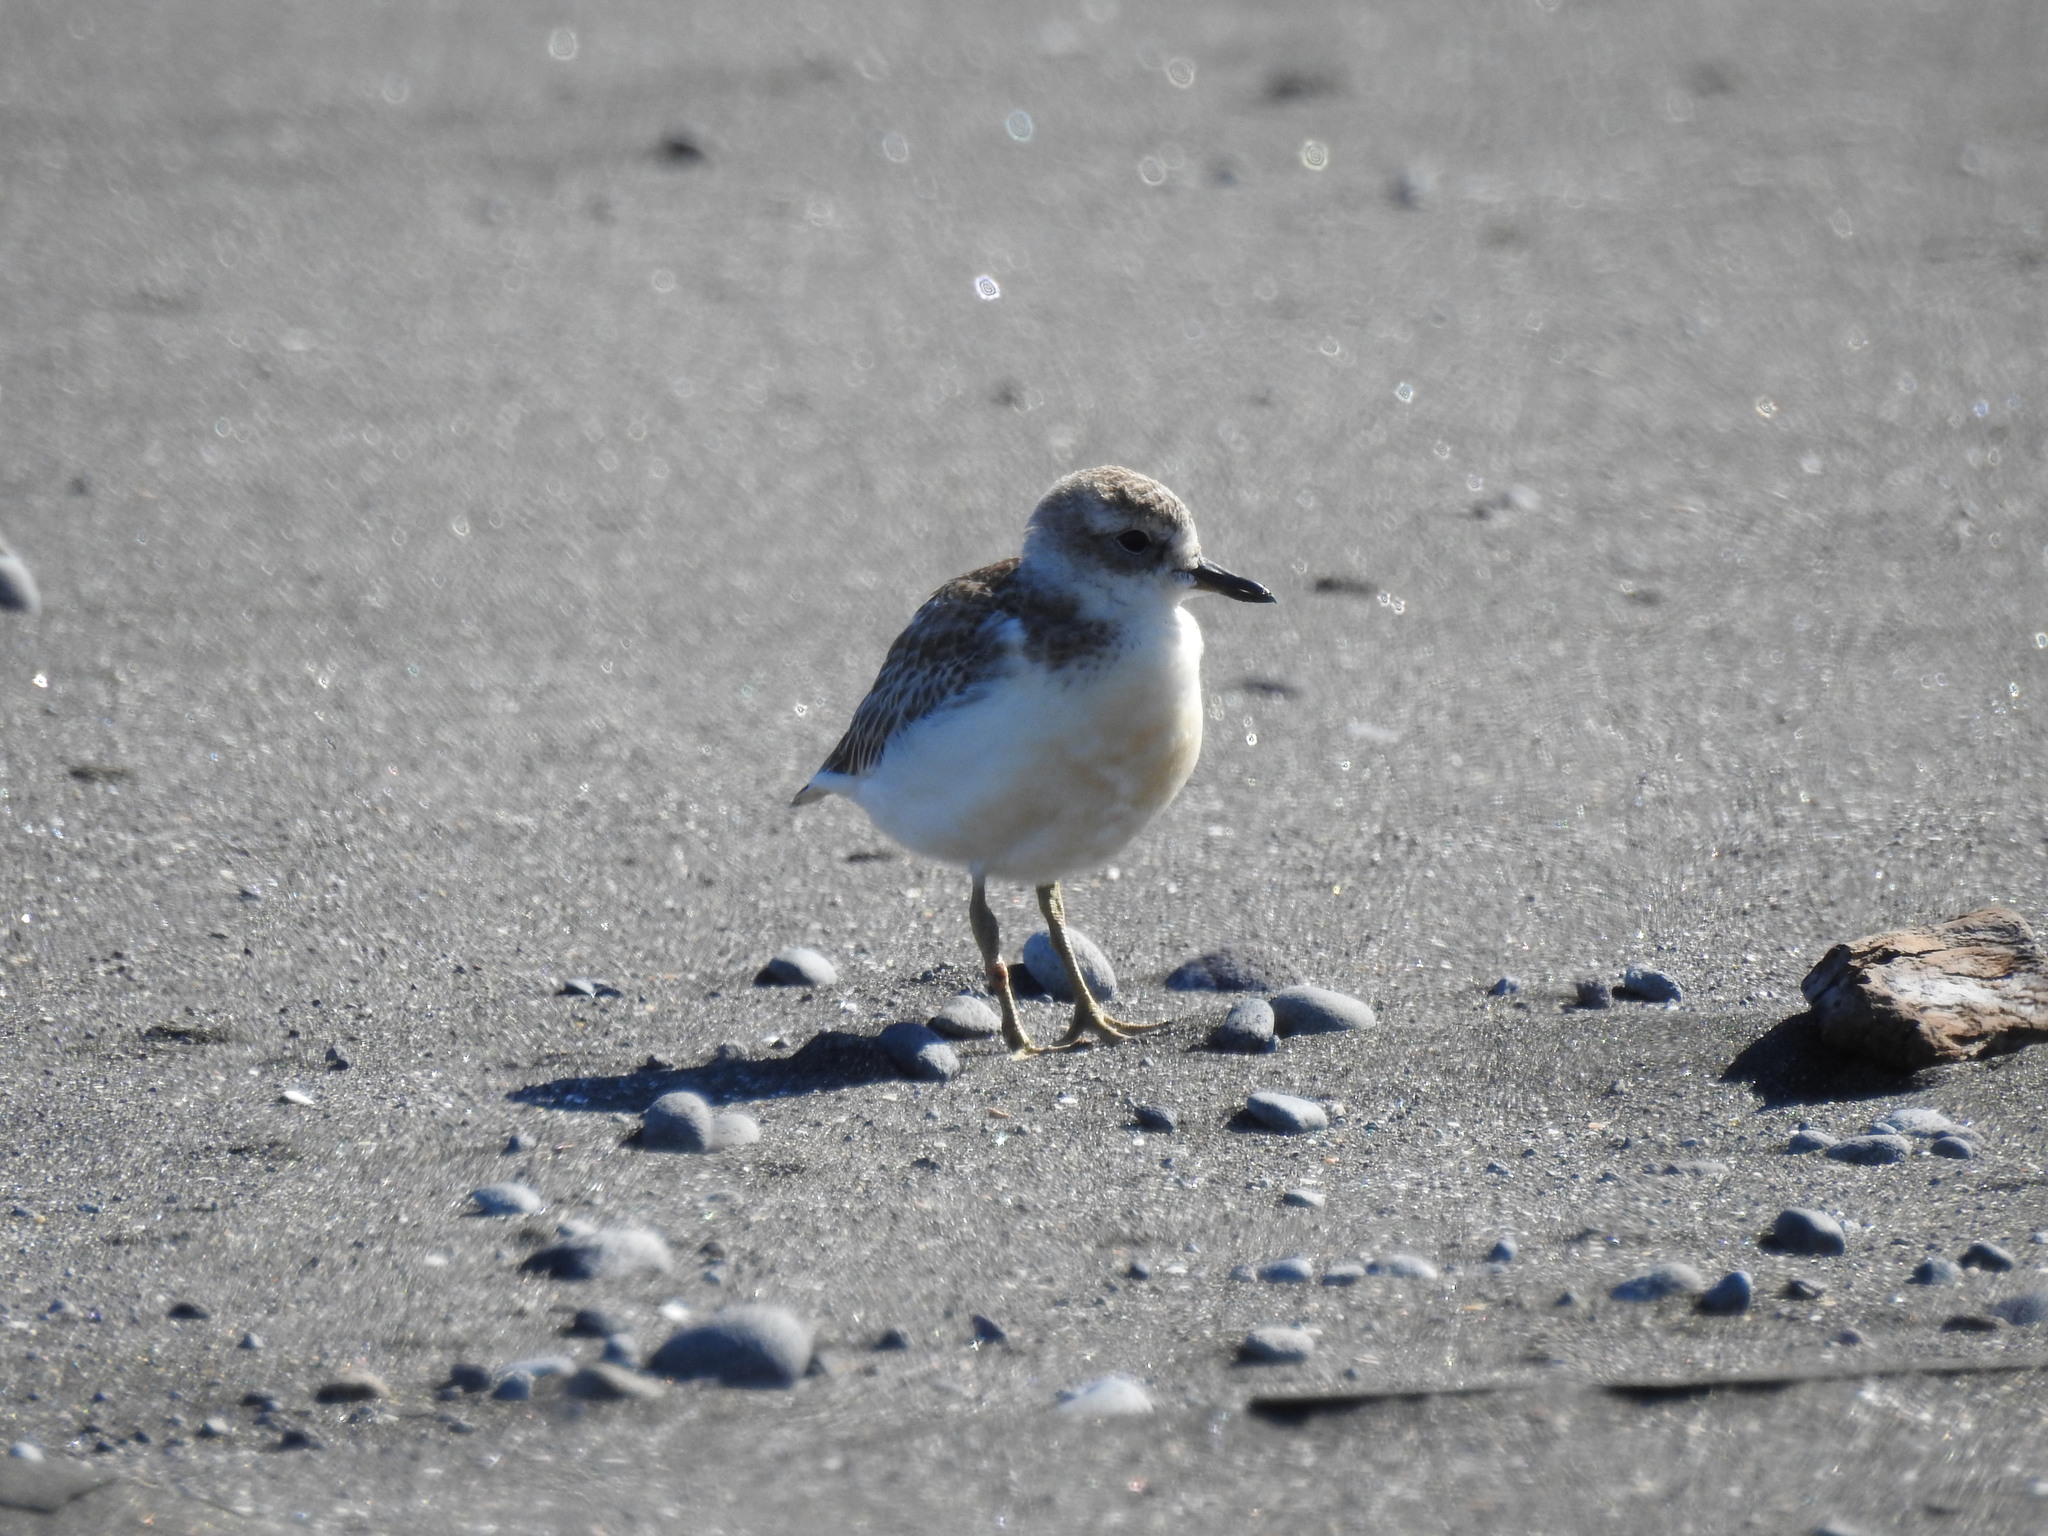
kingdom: Animalia
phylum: Chordata
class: Aves
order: Charadriiformes
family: Charadriidae
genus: Anarhynchus
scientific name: Anarhynchus
